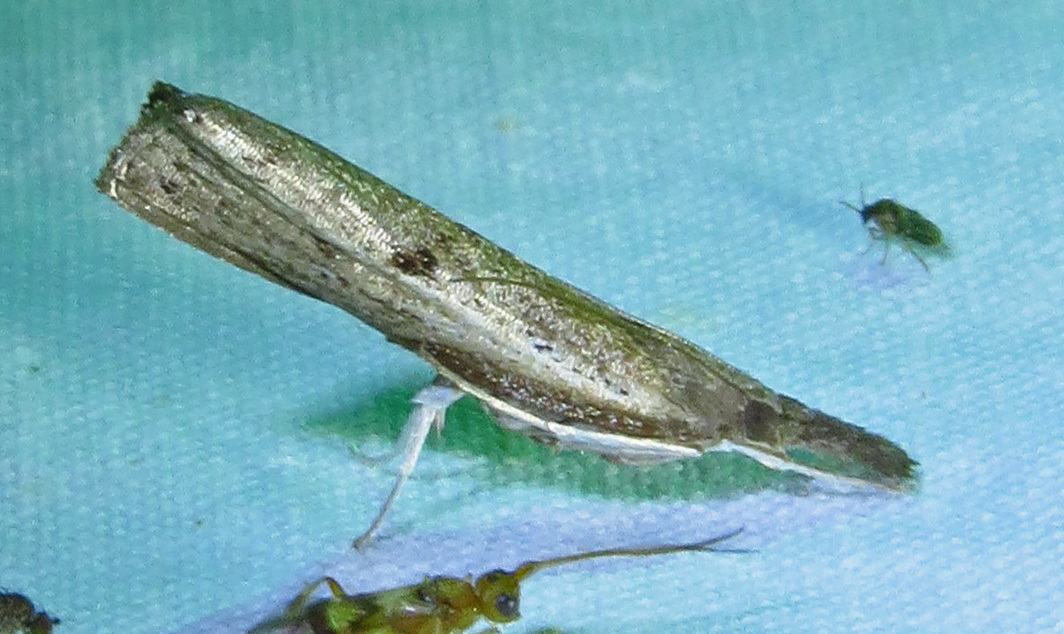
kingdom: Animalia
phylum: Arthropoda
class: Insecta
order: Lepidoptera
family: Crambidae
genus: Fissicrambus
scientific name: Fissicrambus mutabilis
